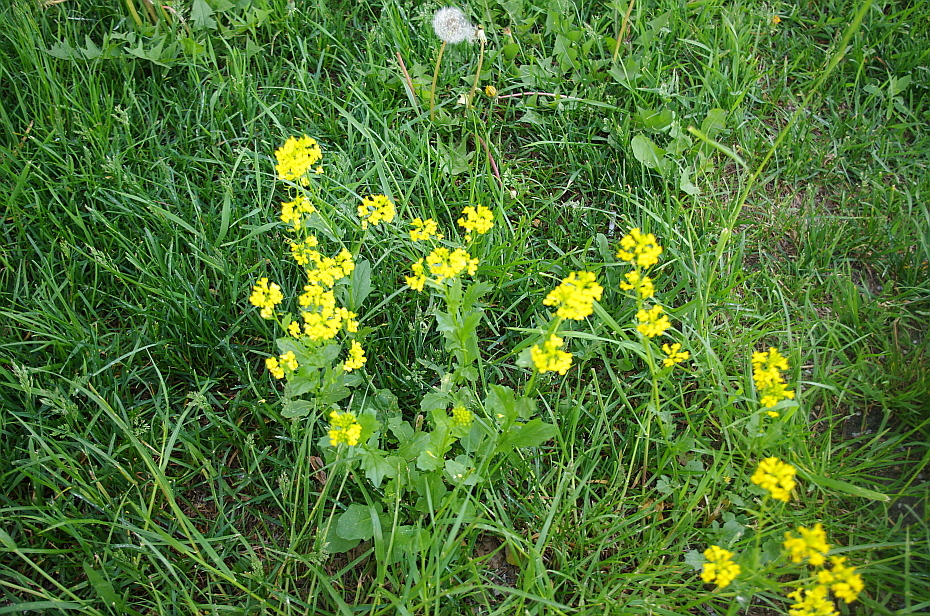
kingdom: Plantae
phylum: Tracheophyta
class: Magnoliopsida
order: Brassicales
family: Brassicaceae
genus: Barbarea
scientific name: Barbarea vulgaris
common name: Cressy-greens
